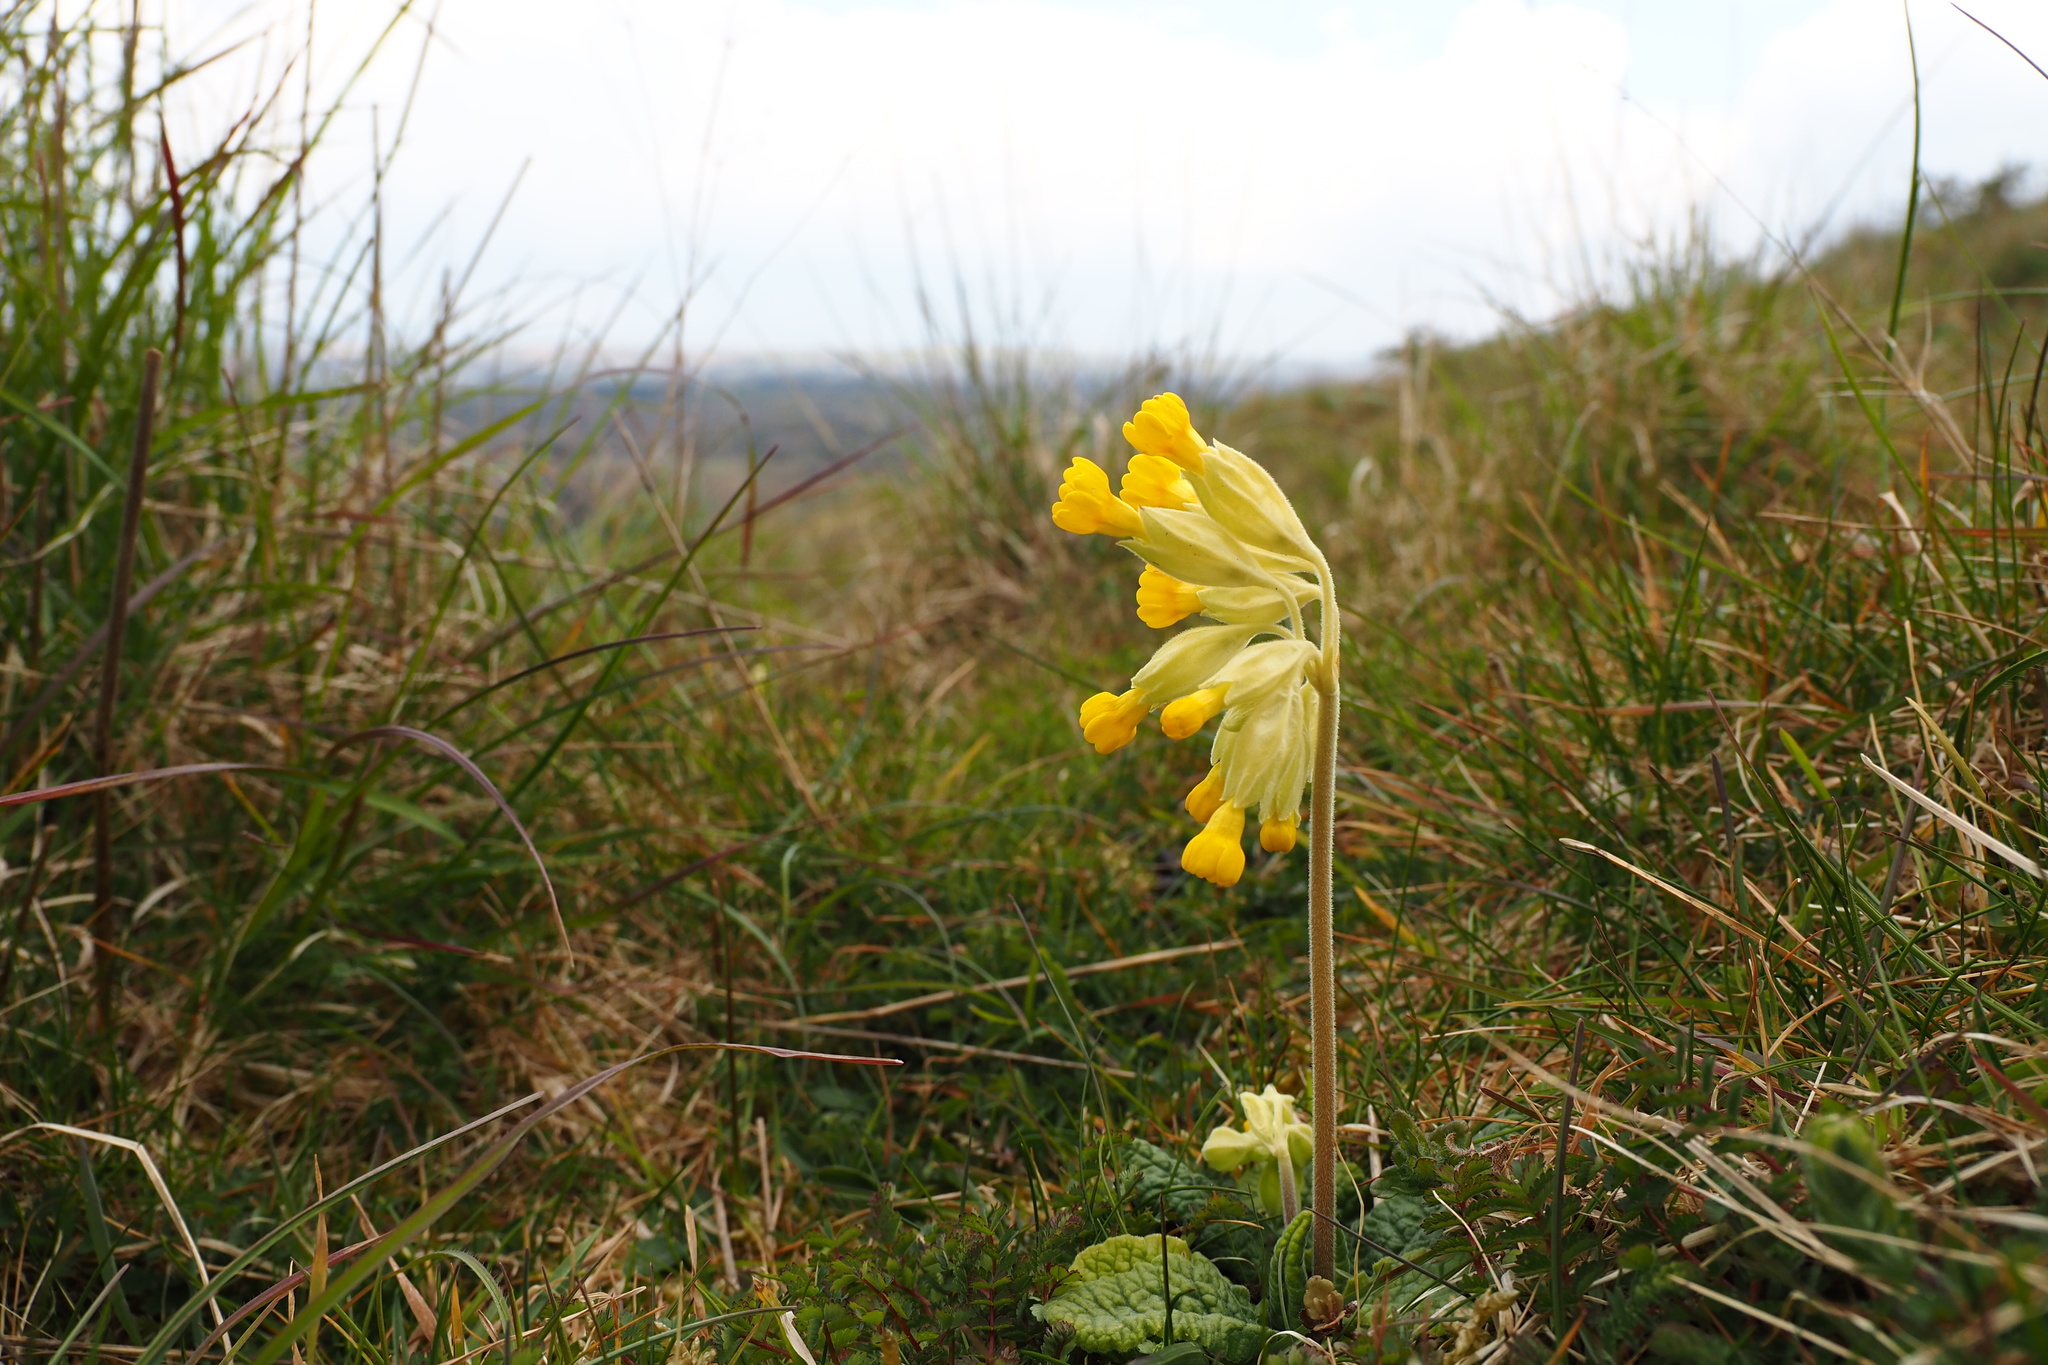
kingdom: Plantae
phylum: Tracheophyta
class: Magnoliopsida
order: Ericales
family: Primulaceae
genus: Primula
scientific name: Primula veris
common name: Cowslip
